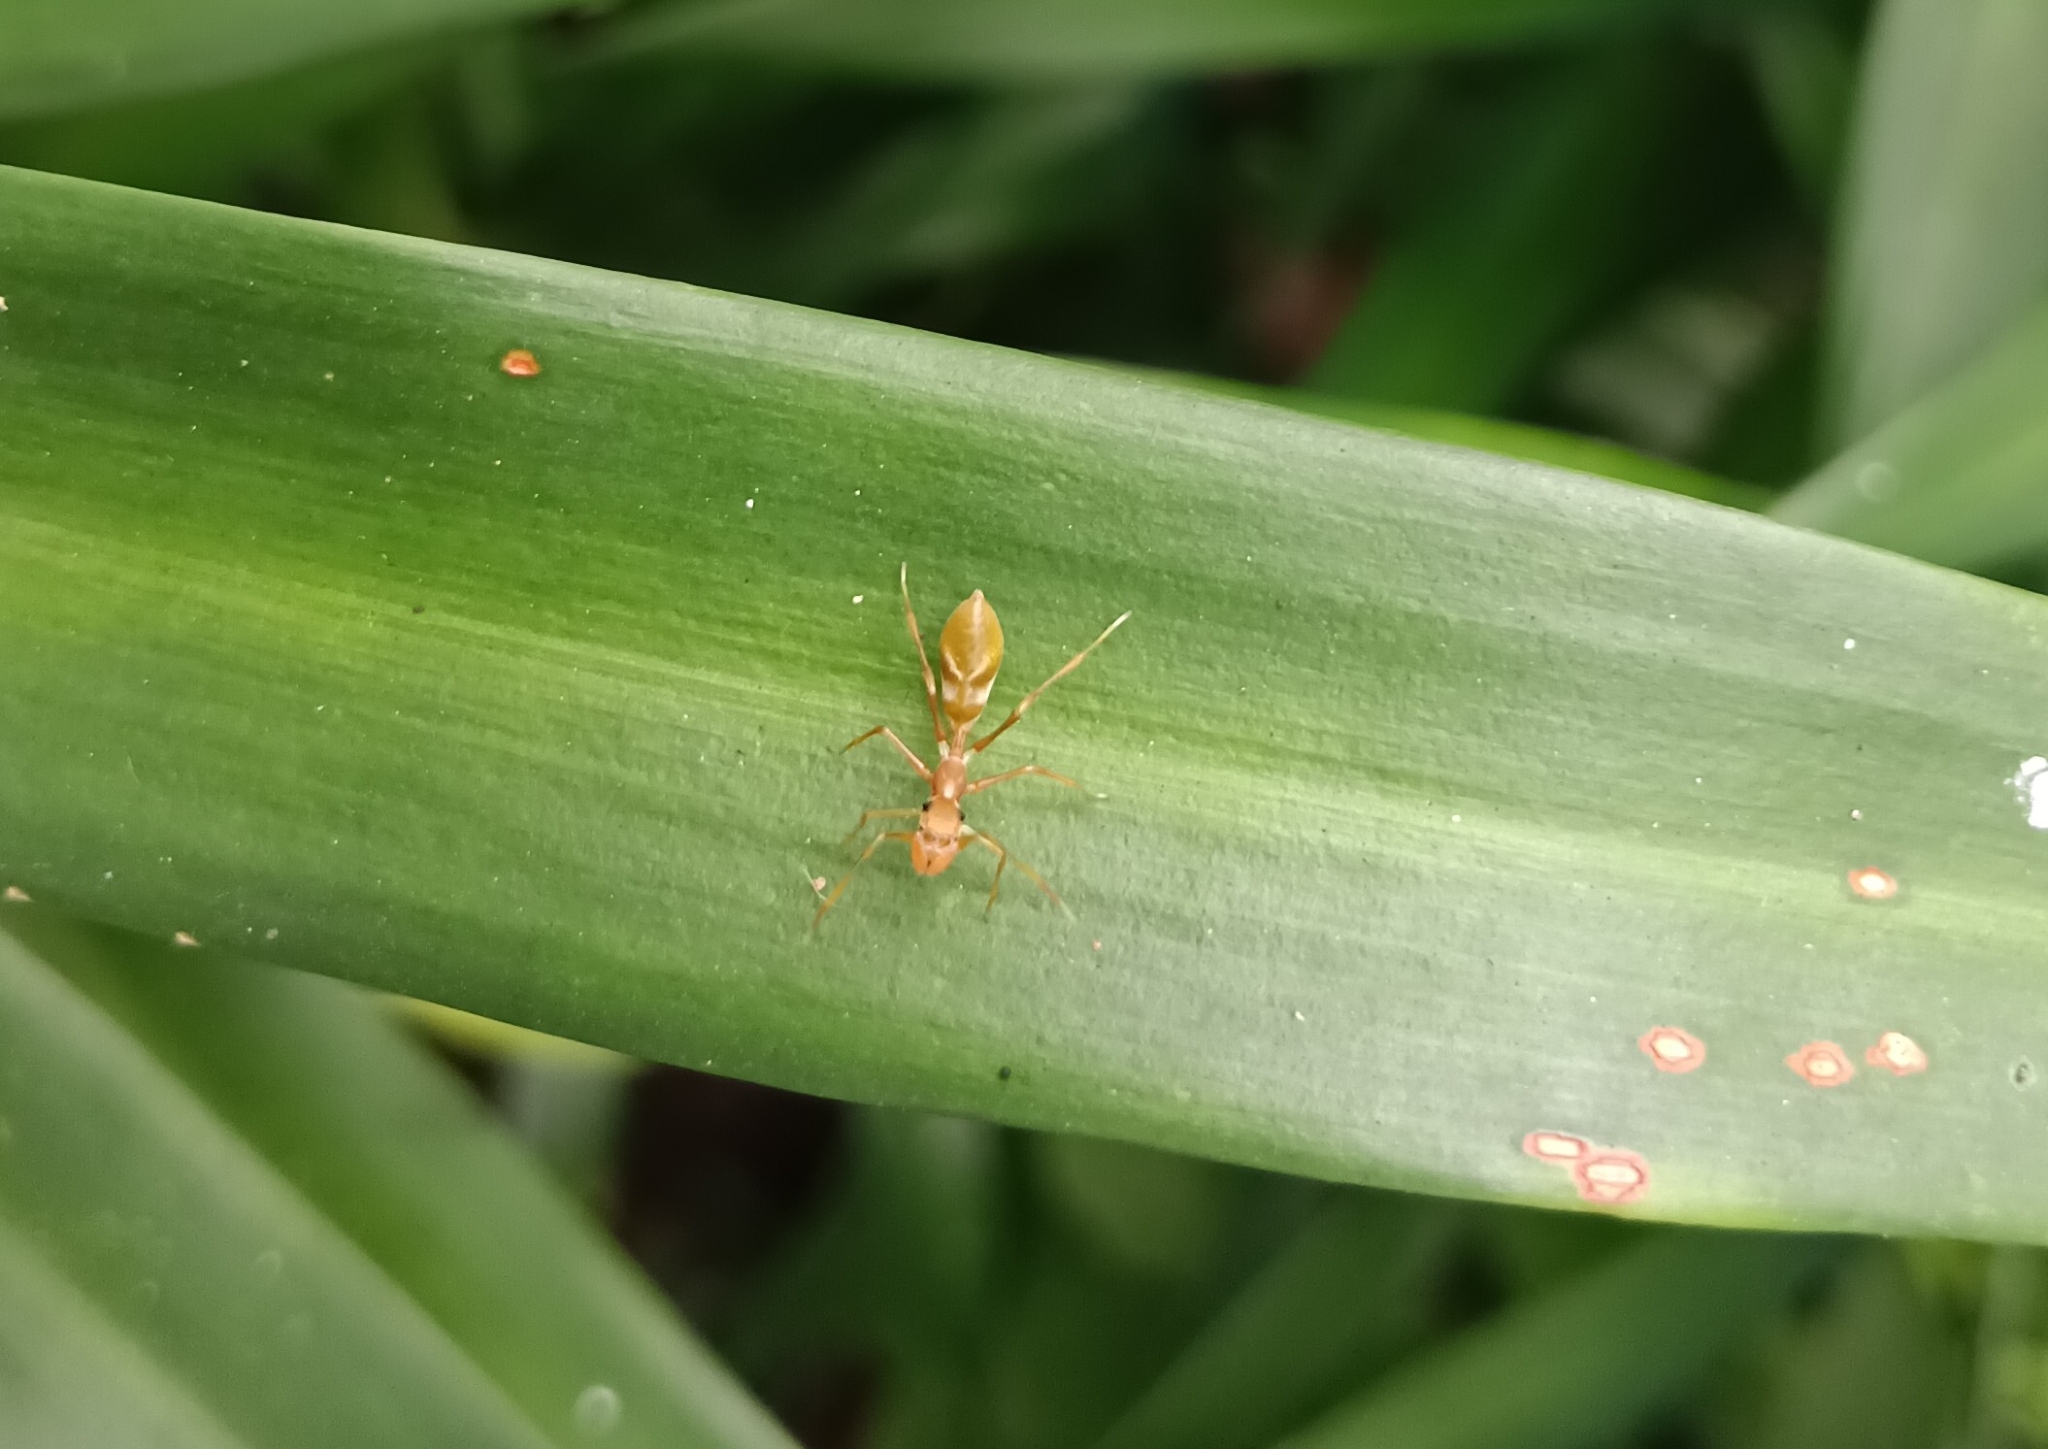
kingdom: Animalia
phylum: Arthropoda
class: Arachnida
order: Araneae
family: Salticidae
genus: Myrmaplata
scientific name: Myrmaplata plataleoides
